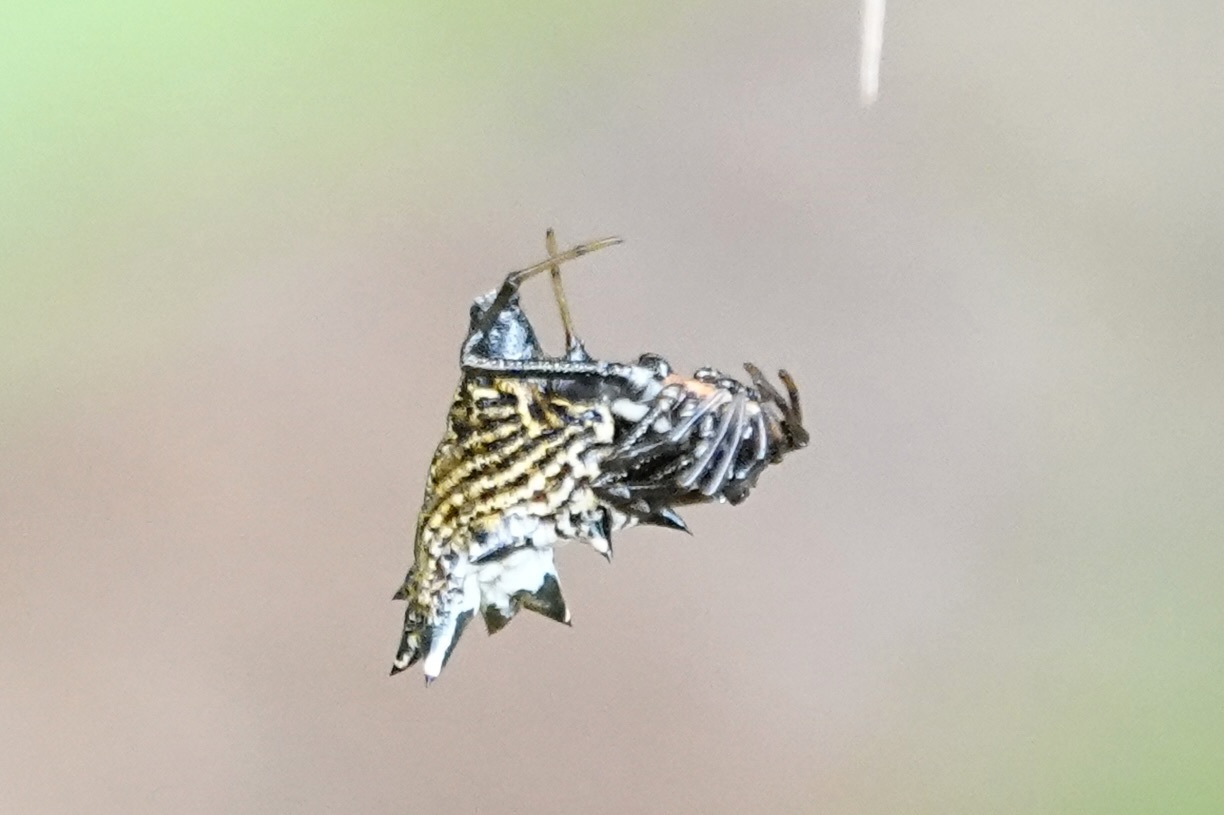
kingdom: Animalia
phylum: Arthropoda
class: Arachnida
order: Araneae
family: Araneidae
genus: Micrathena
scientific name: Micrathena gracilis
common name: Orb weavers
